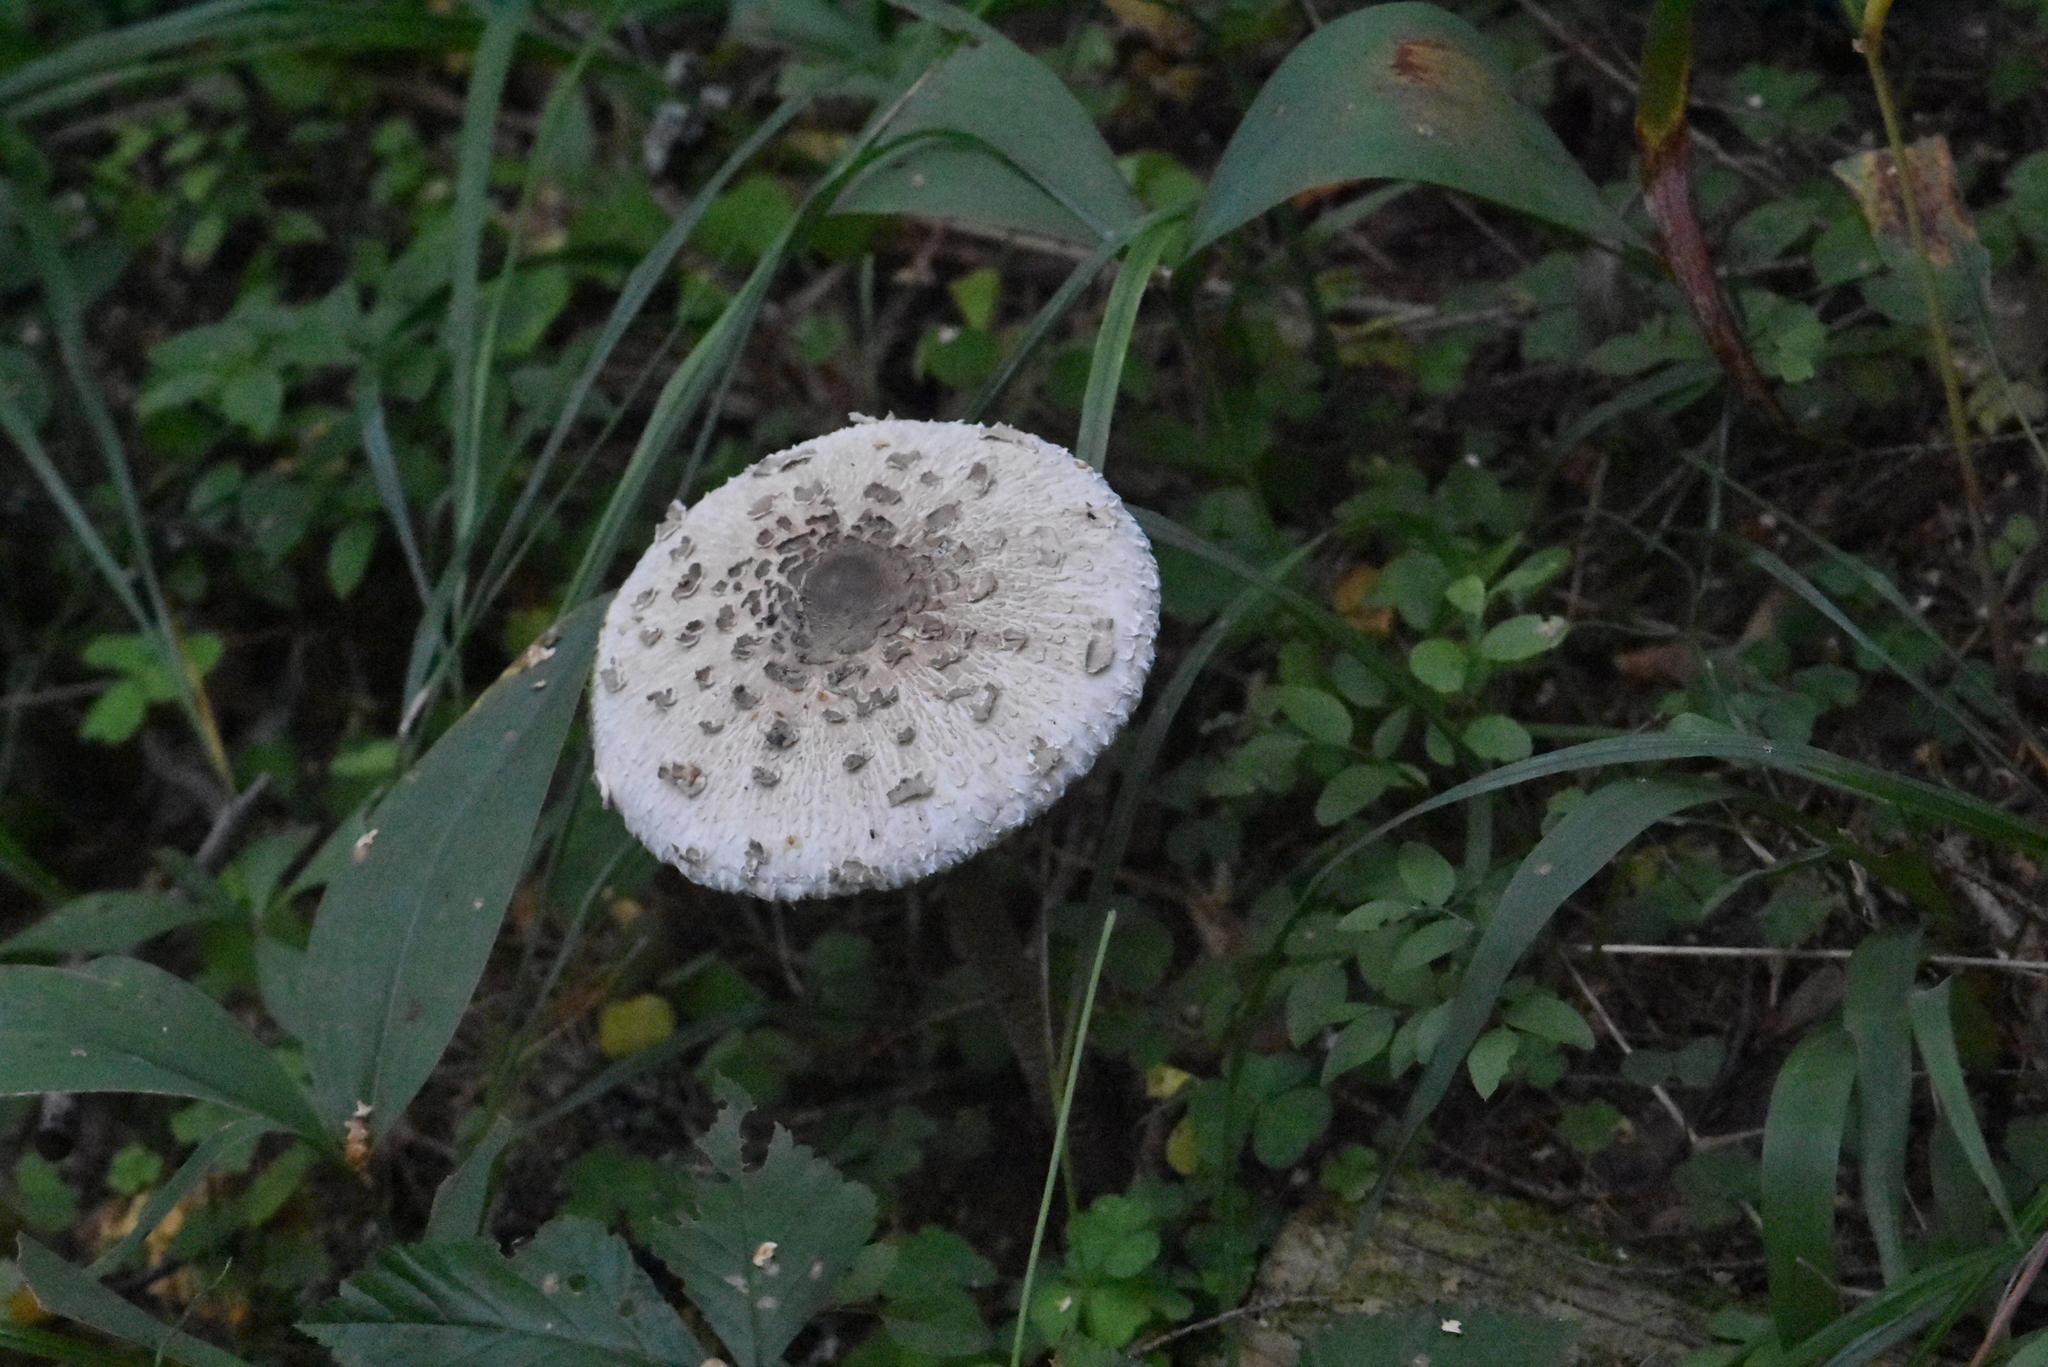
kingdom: Fungi
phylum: Basidiomycota
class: Agaricomycetes
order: Agaricales
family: Agaricaceae
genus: Macrolepiota
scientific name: Macrolepiota procera
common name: Parasol
